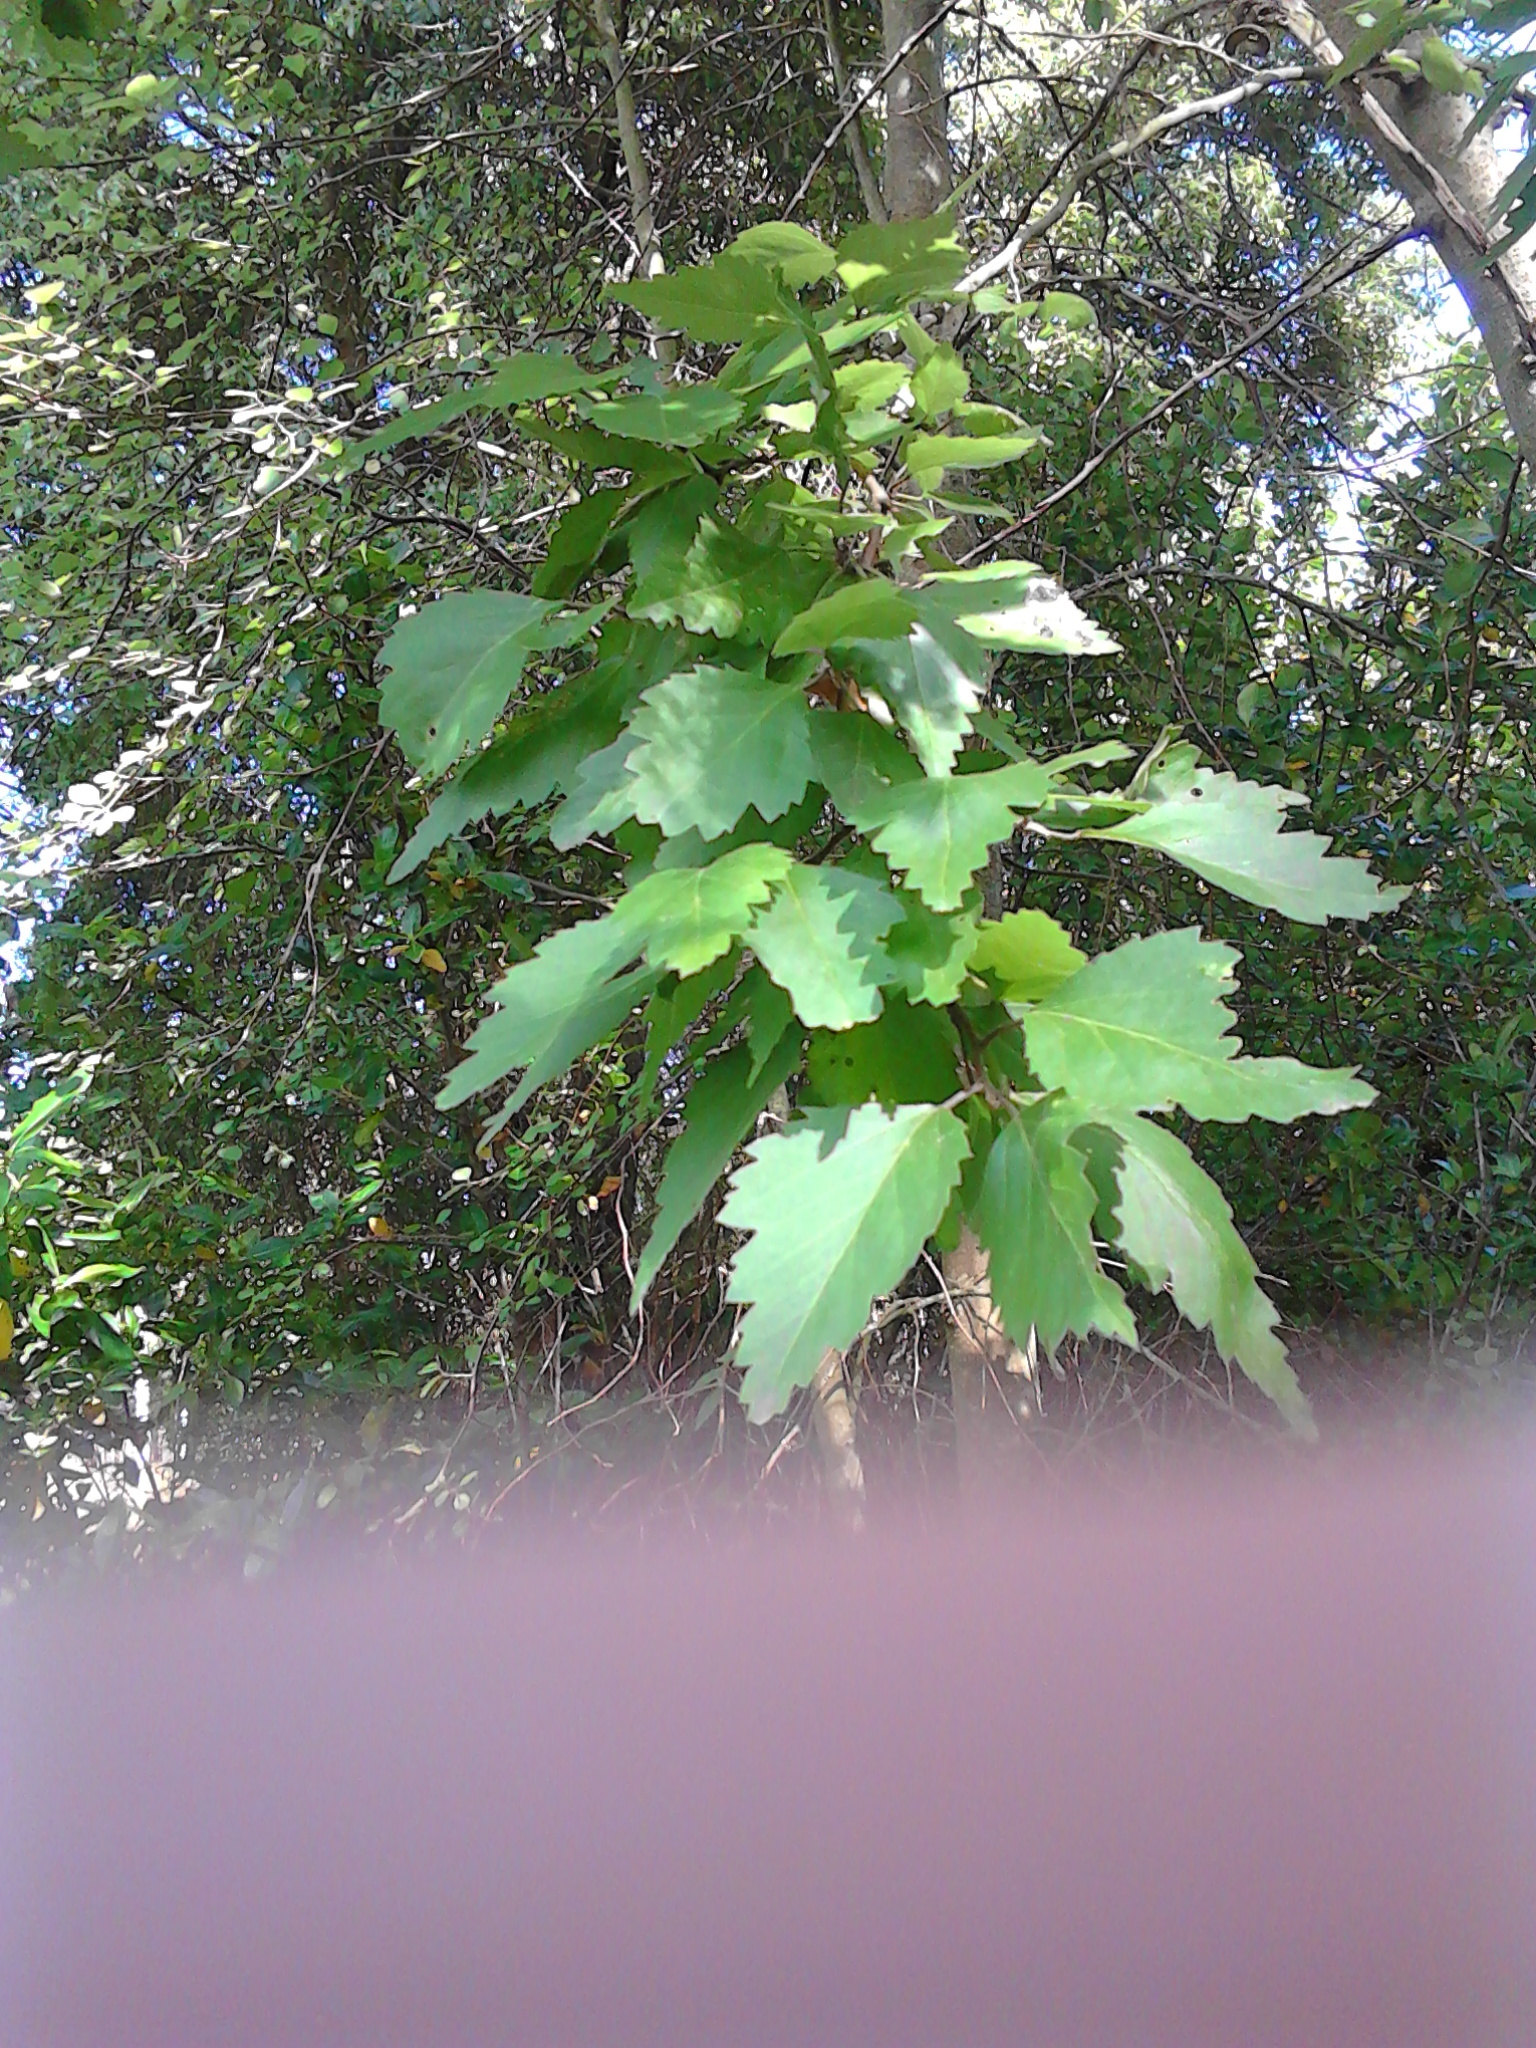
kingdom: Plantae
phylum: Tracheophyta
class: Magnoliopsida
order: Malvales
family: Malvaceae
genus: Plagianthus
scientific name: Plagianthus regius
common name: Manatu
